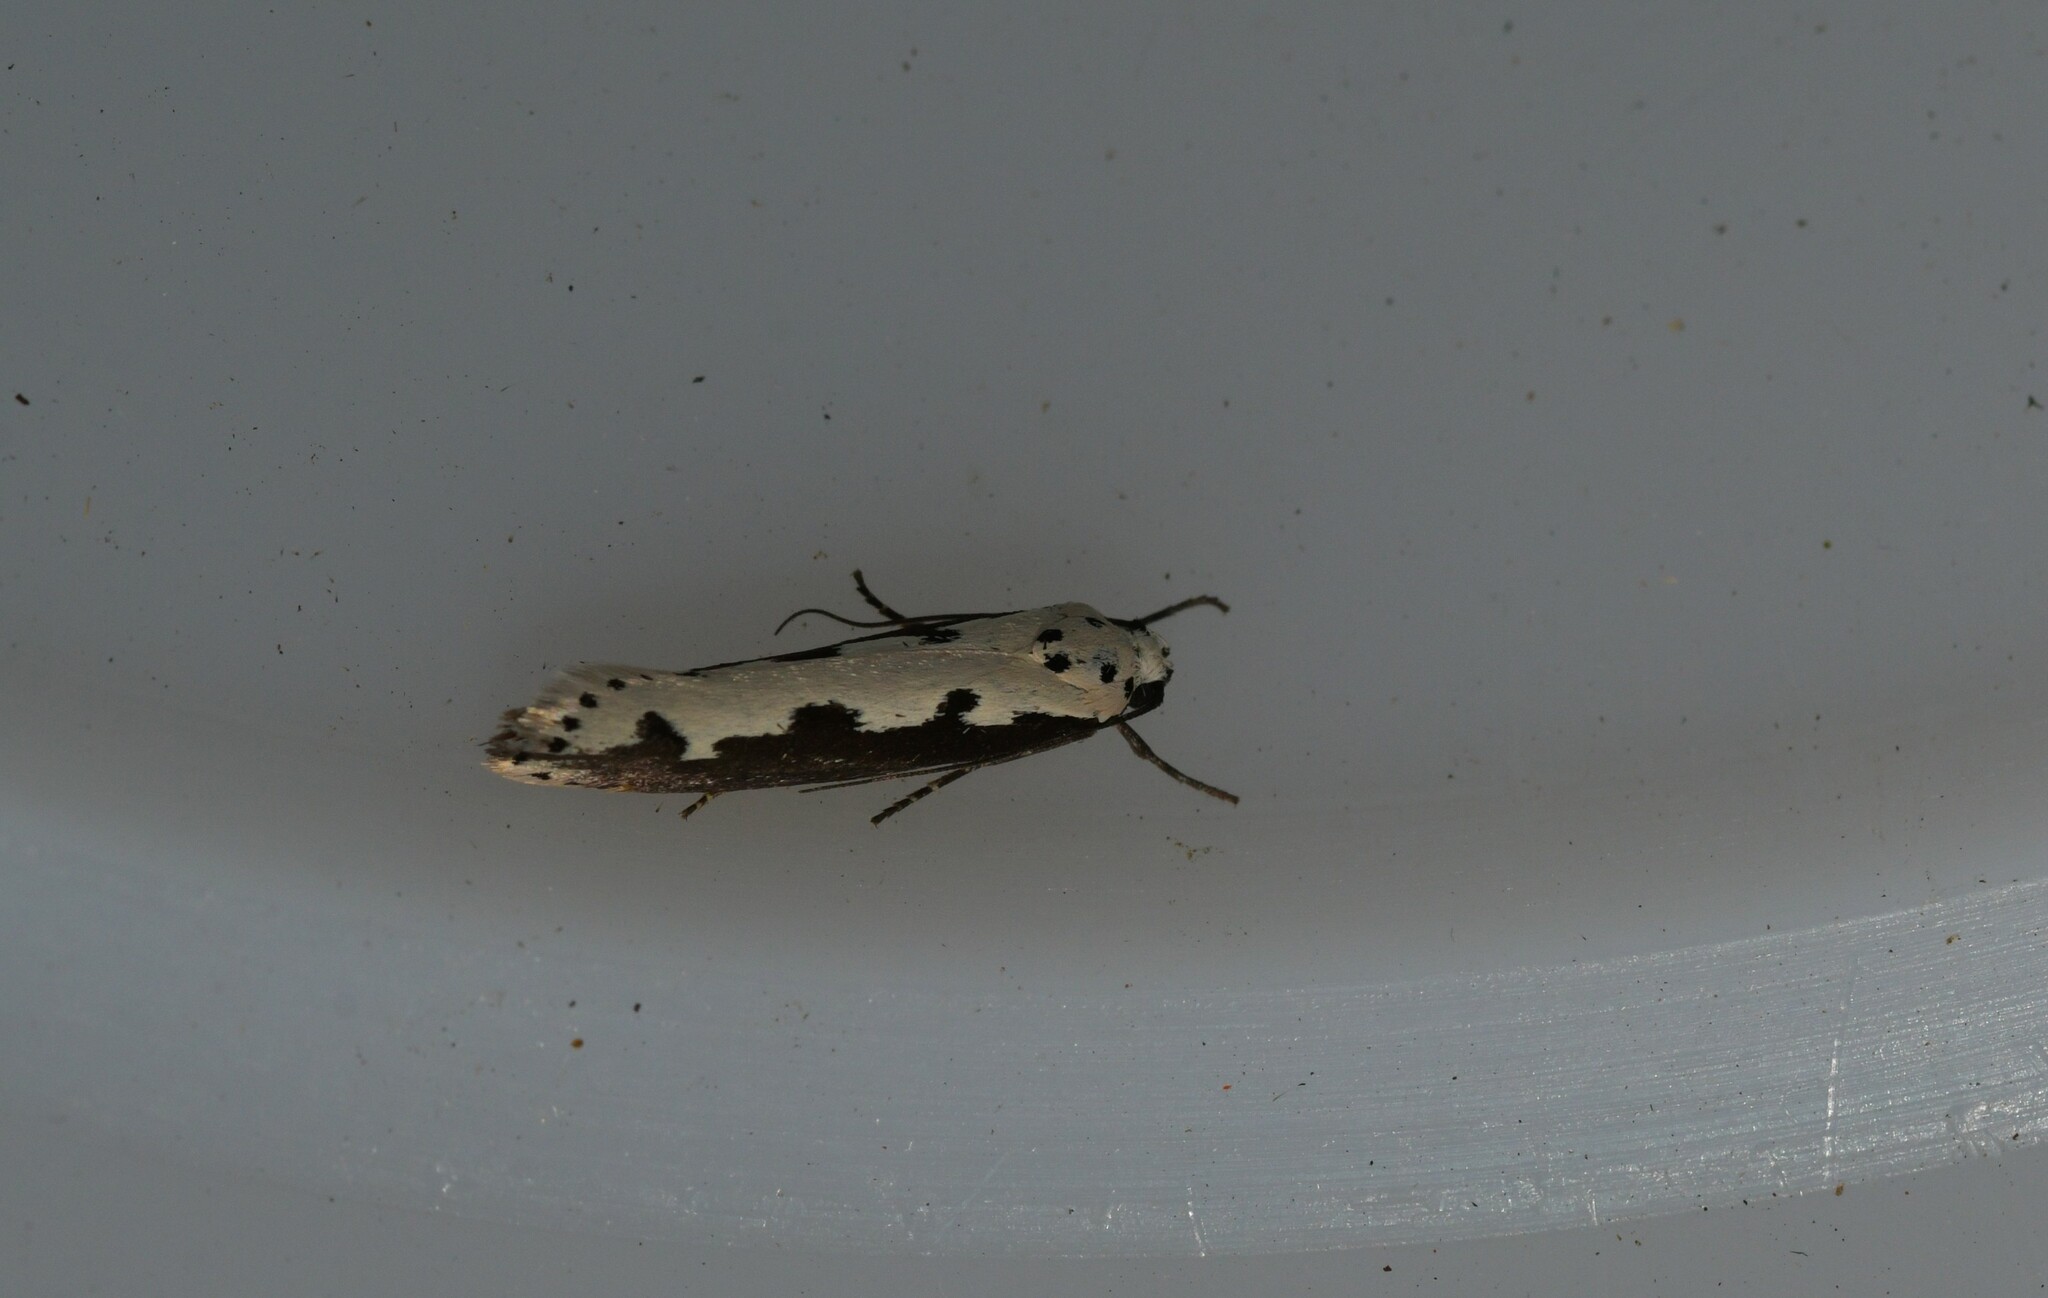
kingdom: Animalia
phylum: Arthropoda
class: Insecta
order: Lepidoptera
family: Ethmiidae
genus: Ethmia
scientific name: Ethmia bipunctella
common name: Bordered ermel
